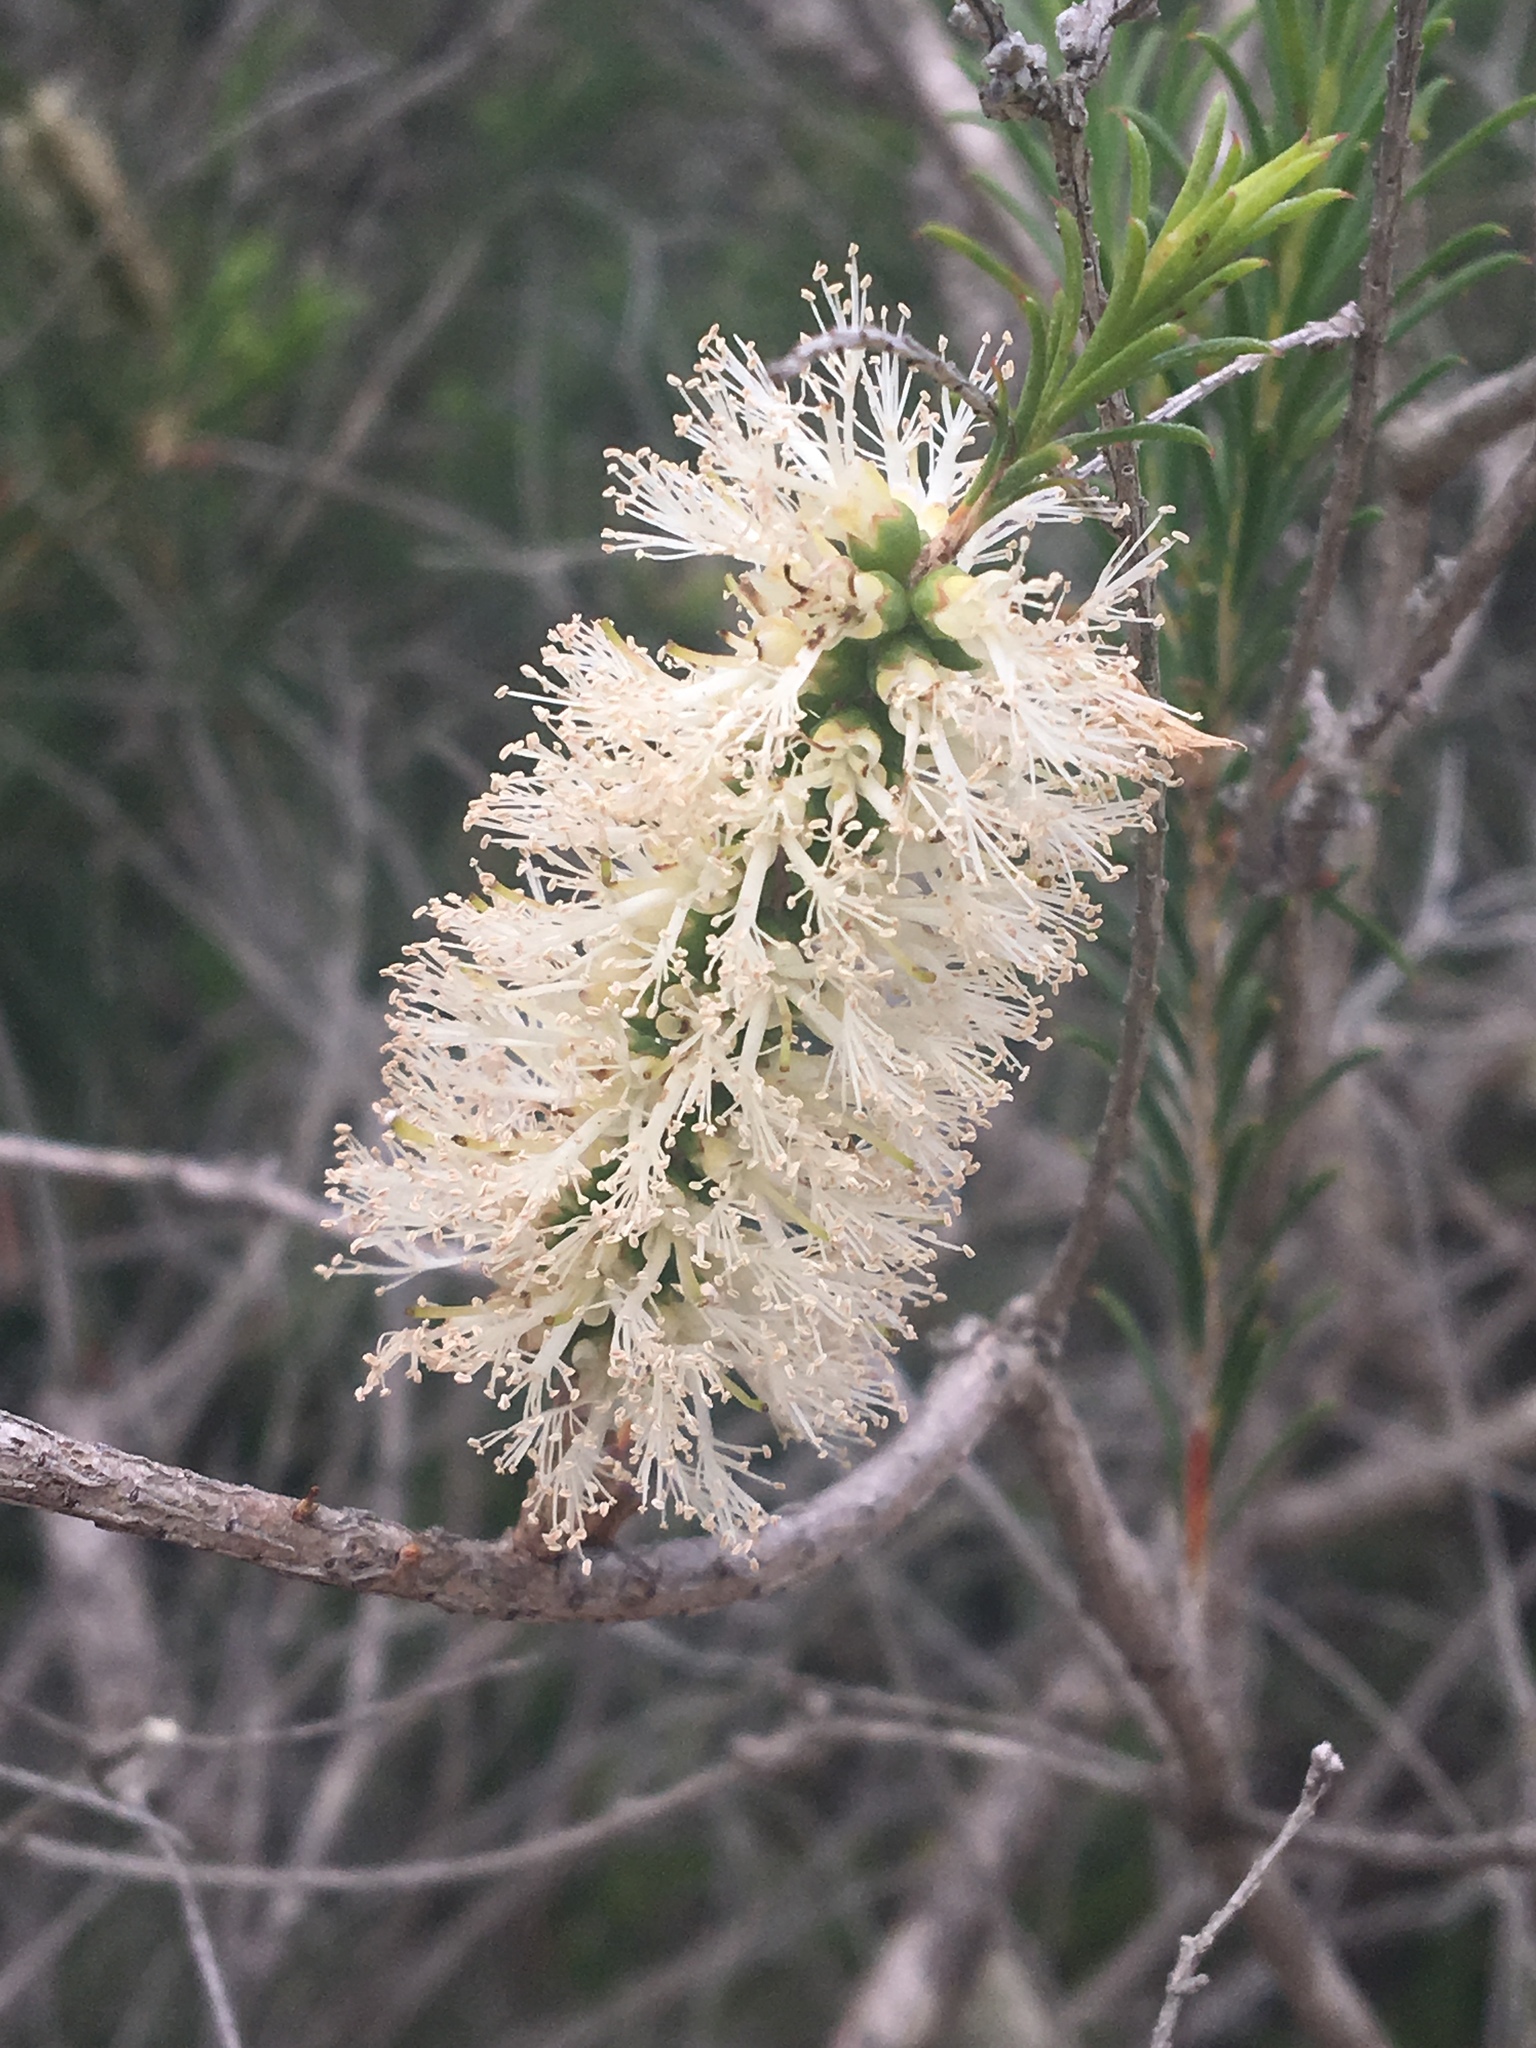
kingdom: Plantae
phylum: Tracheophyta
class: Magnoliopsida
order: Myrtales
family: Myrtaceae
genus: Melaleuca
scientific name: Melaleuca armillaris
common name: Bracelet honey myrtle
